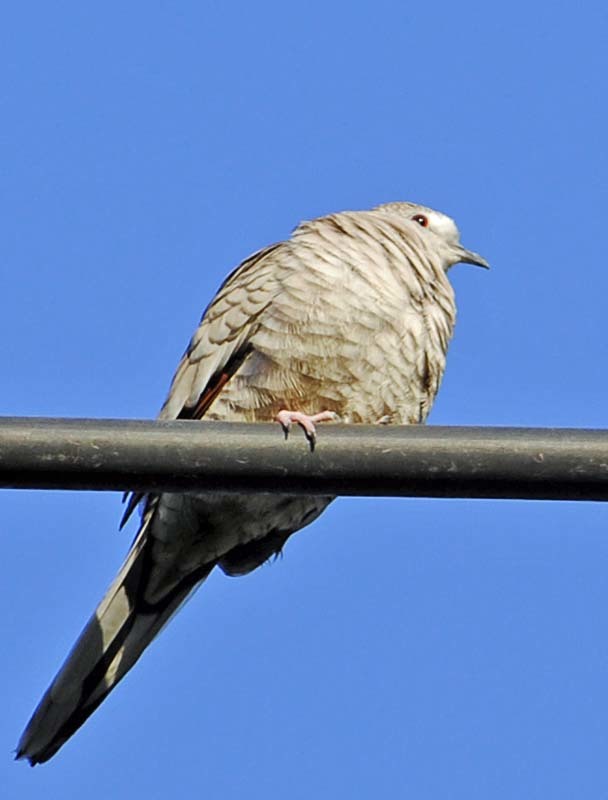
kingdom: Animalia
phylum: Chordata
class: Aves
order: Columbiformes
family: Columbidae
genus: Columbina
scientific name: Columbina inca
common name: Inca dove
